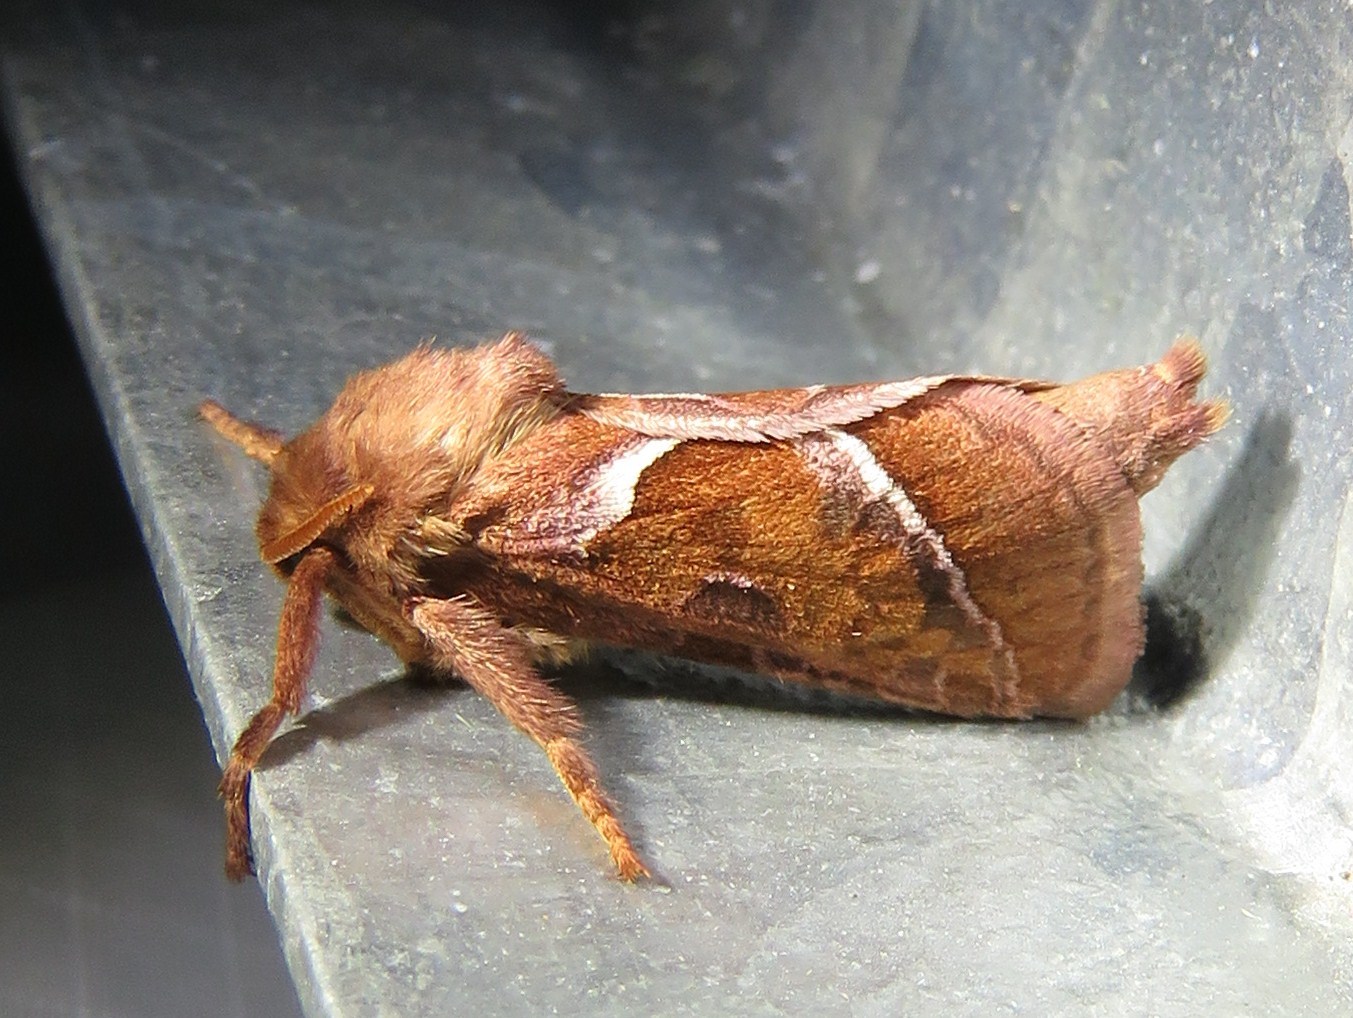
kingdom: Animalia
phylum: Arthropoda
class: Insecta
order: Lepidoptera
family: Hepialidae
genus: Triodia
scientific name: Triodia sylvina
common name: Orange swift
